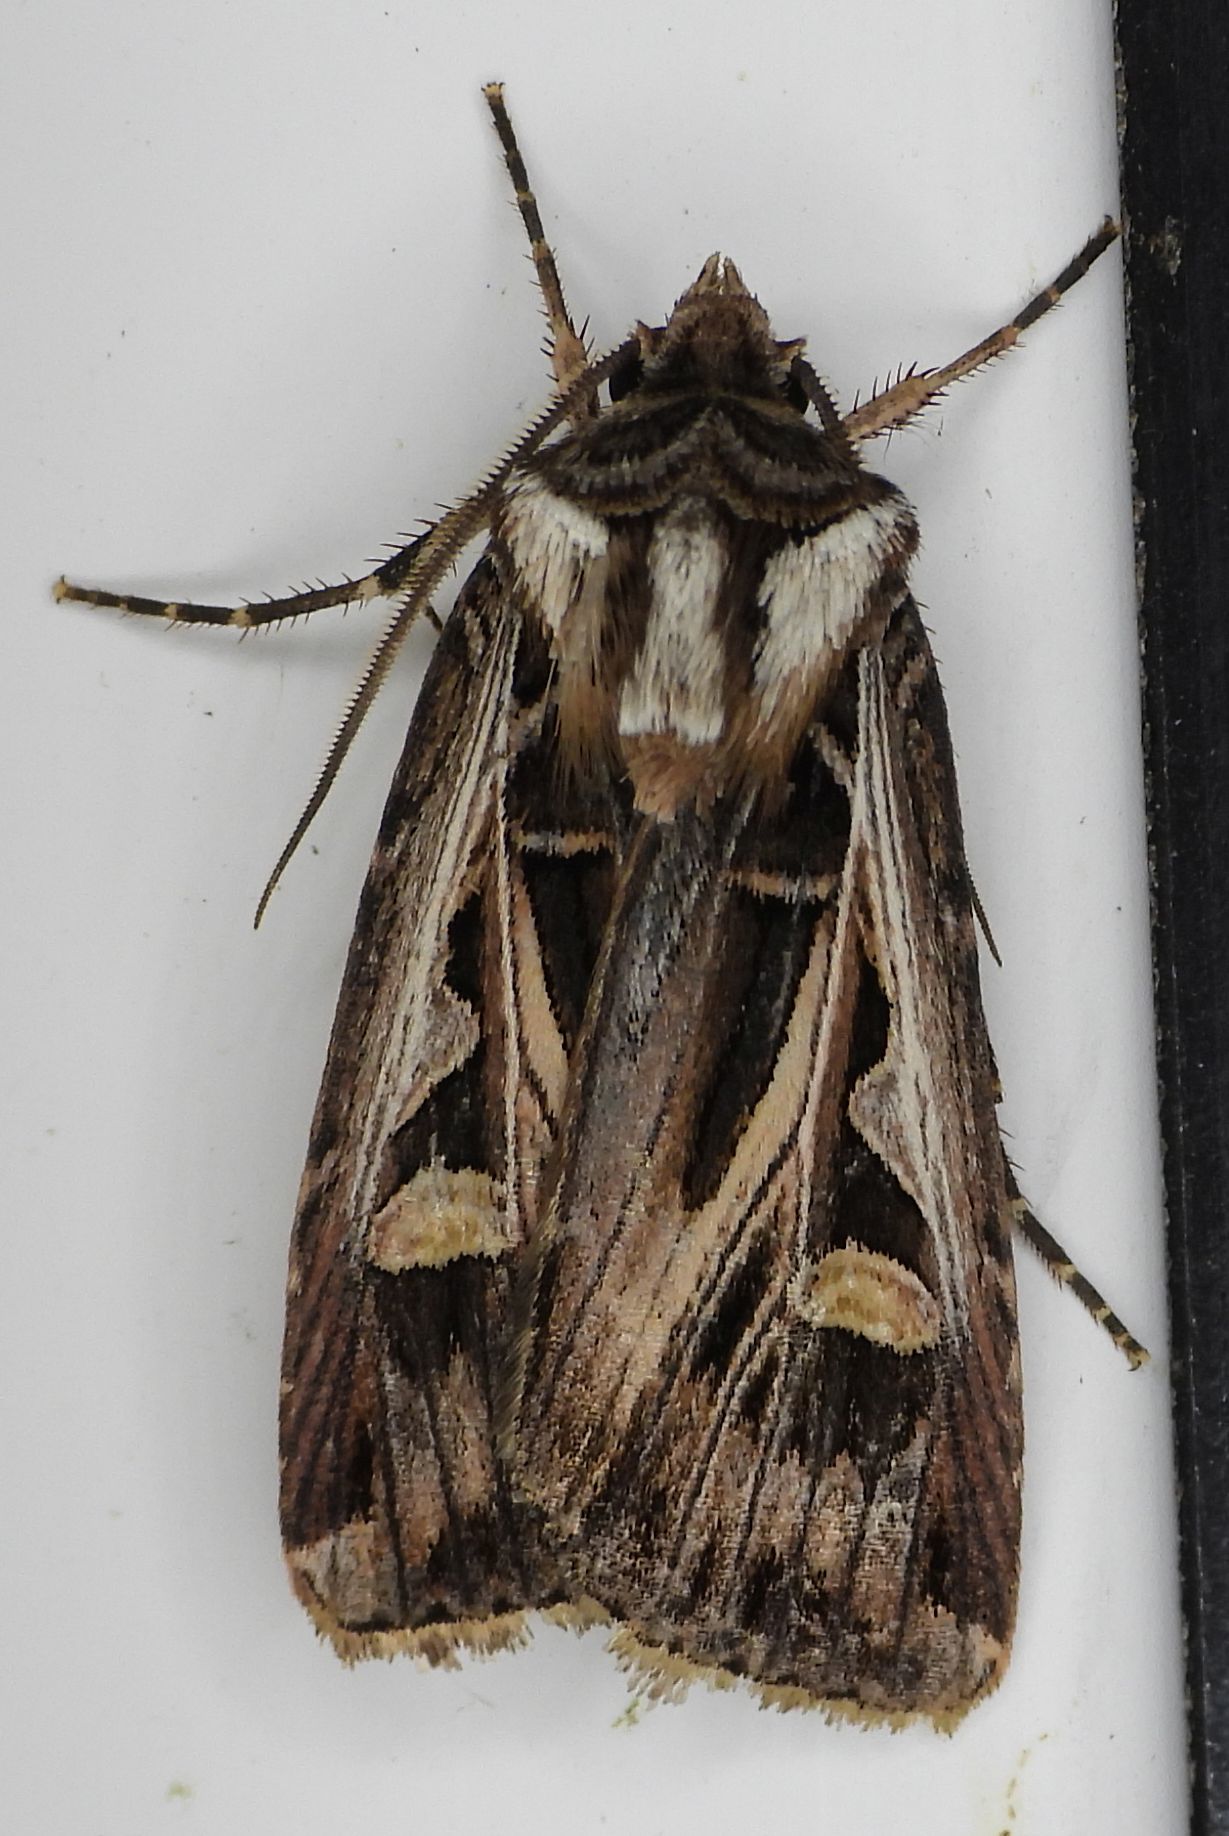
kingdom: Animalia
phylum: Arthropoda
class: Insecta
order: Lepidoptera
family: Noctuidae
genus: Feltia
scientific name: Feltia jaculifera
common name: Dingy cutworm moth
